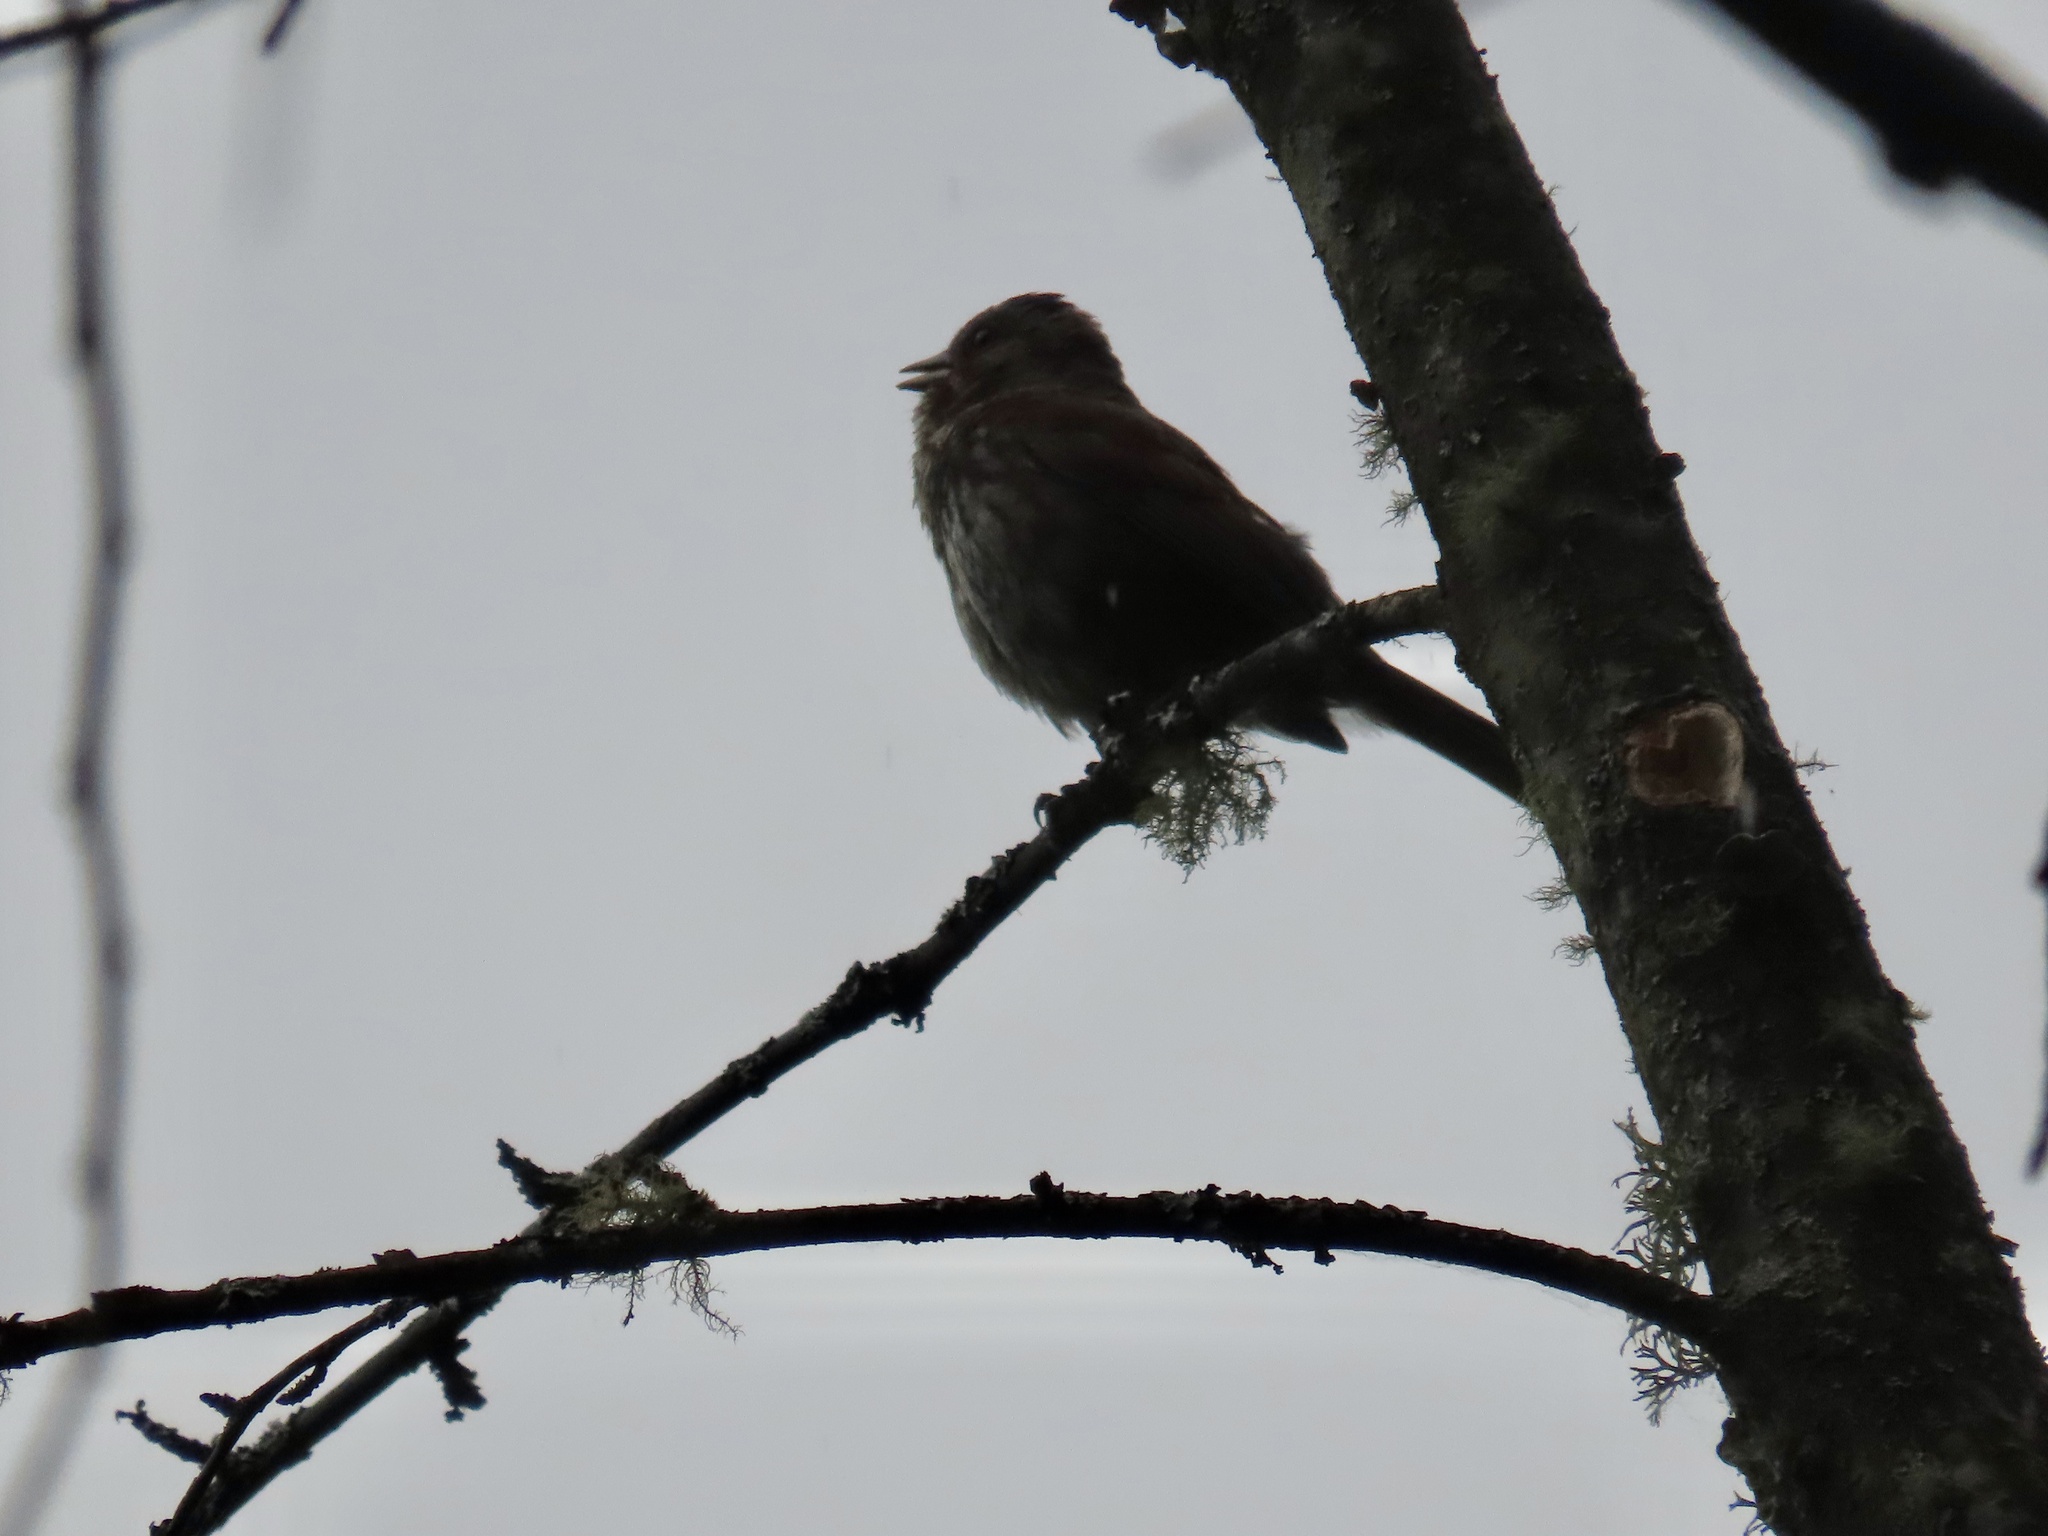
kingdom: Animalia
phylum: Chordata
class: Aves
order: Passeriformes
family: Passerellidae
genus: Melospiza
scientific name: Melospiza melodia
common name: Song sparrow
